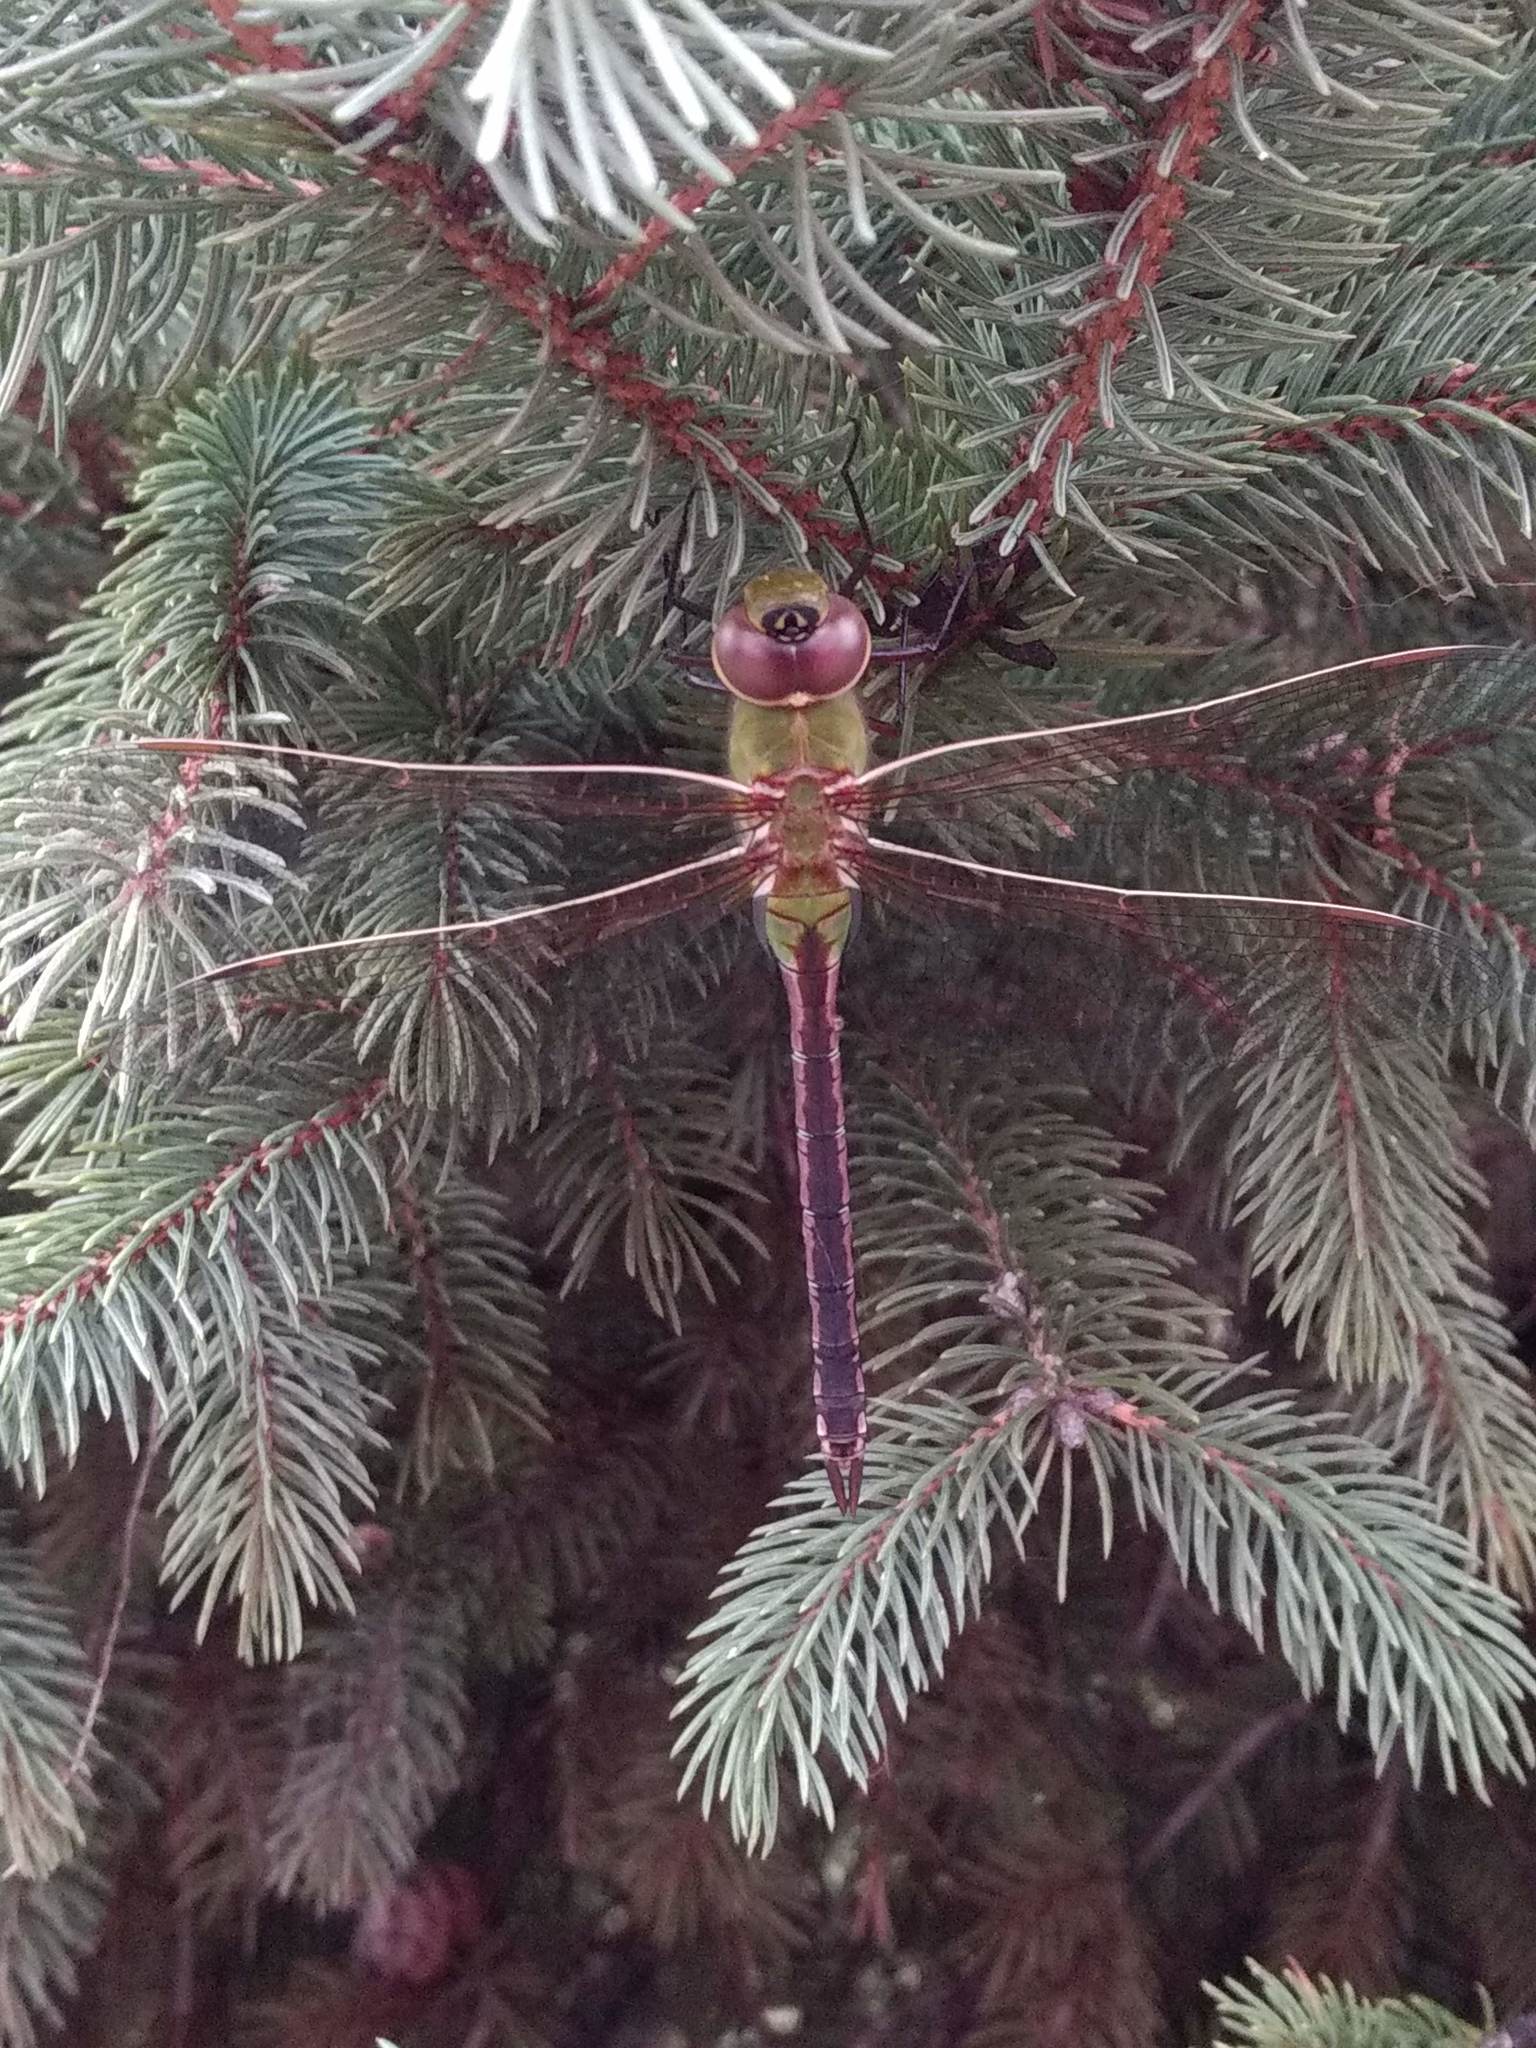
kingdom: Animalia
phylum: Arthropoda
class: Insecta
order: Odonata
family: Aeshnidae
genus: Anax
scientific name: Anax junius
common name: Common green darner
